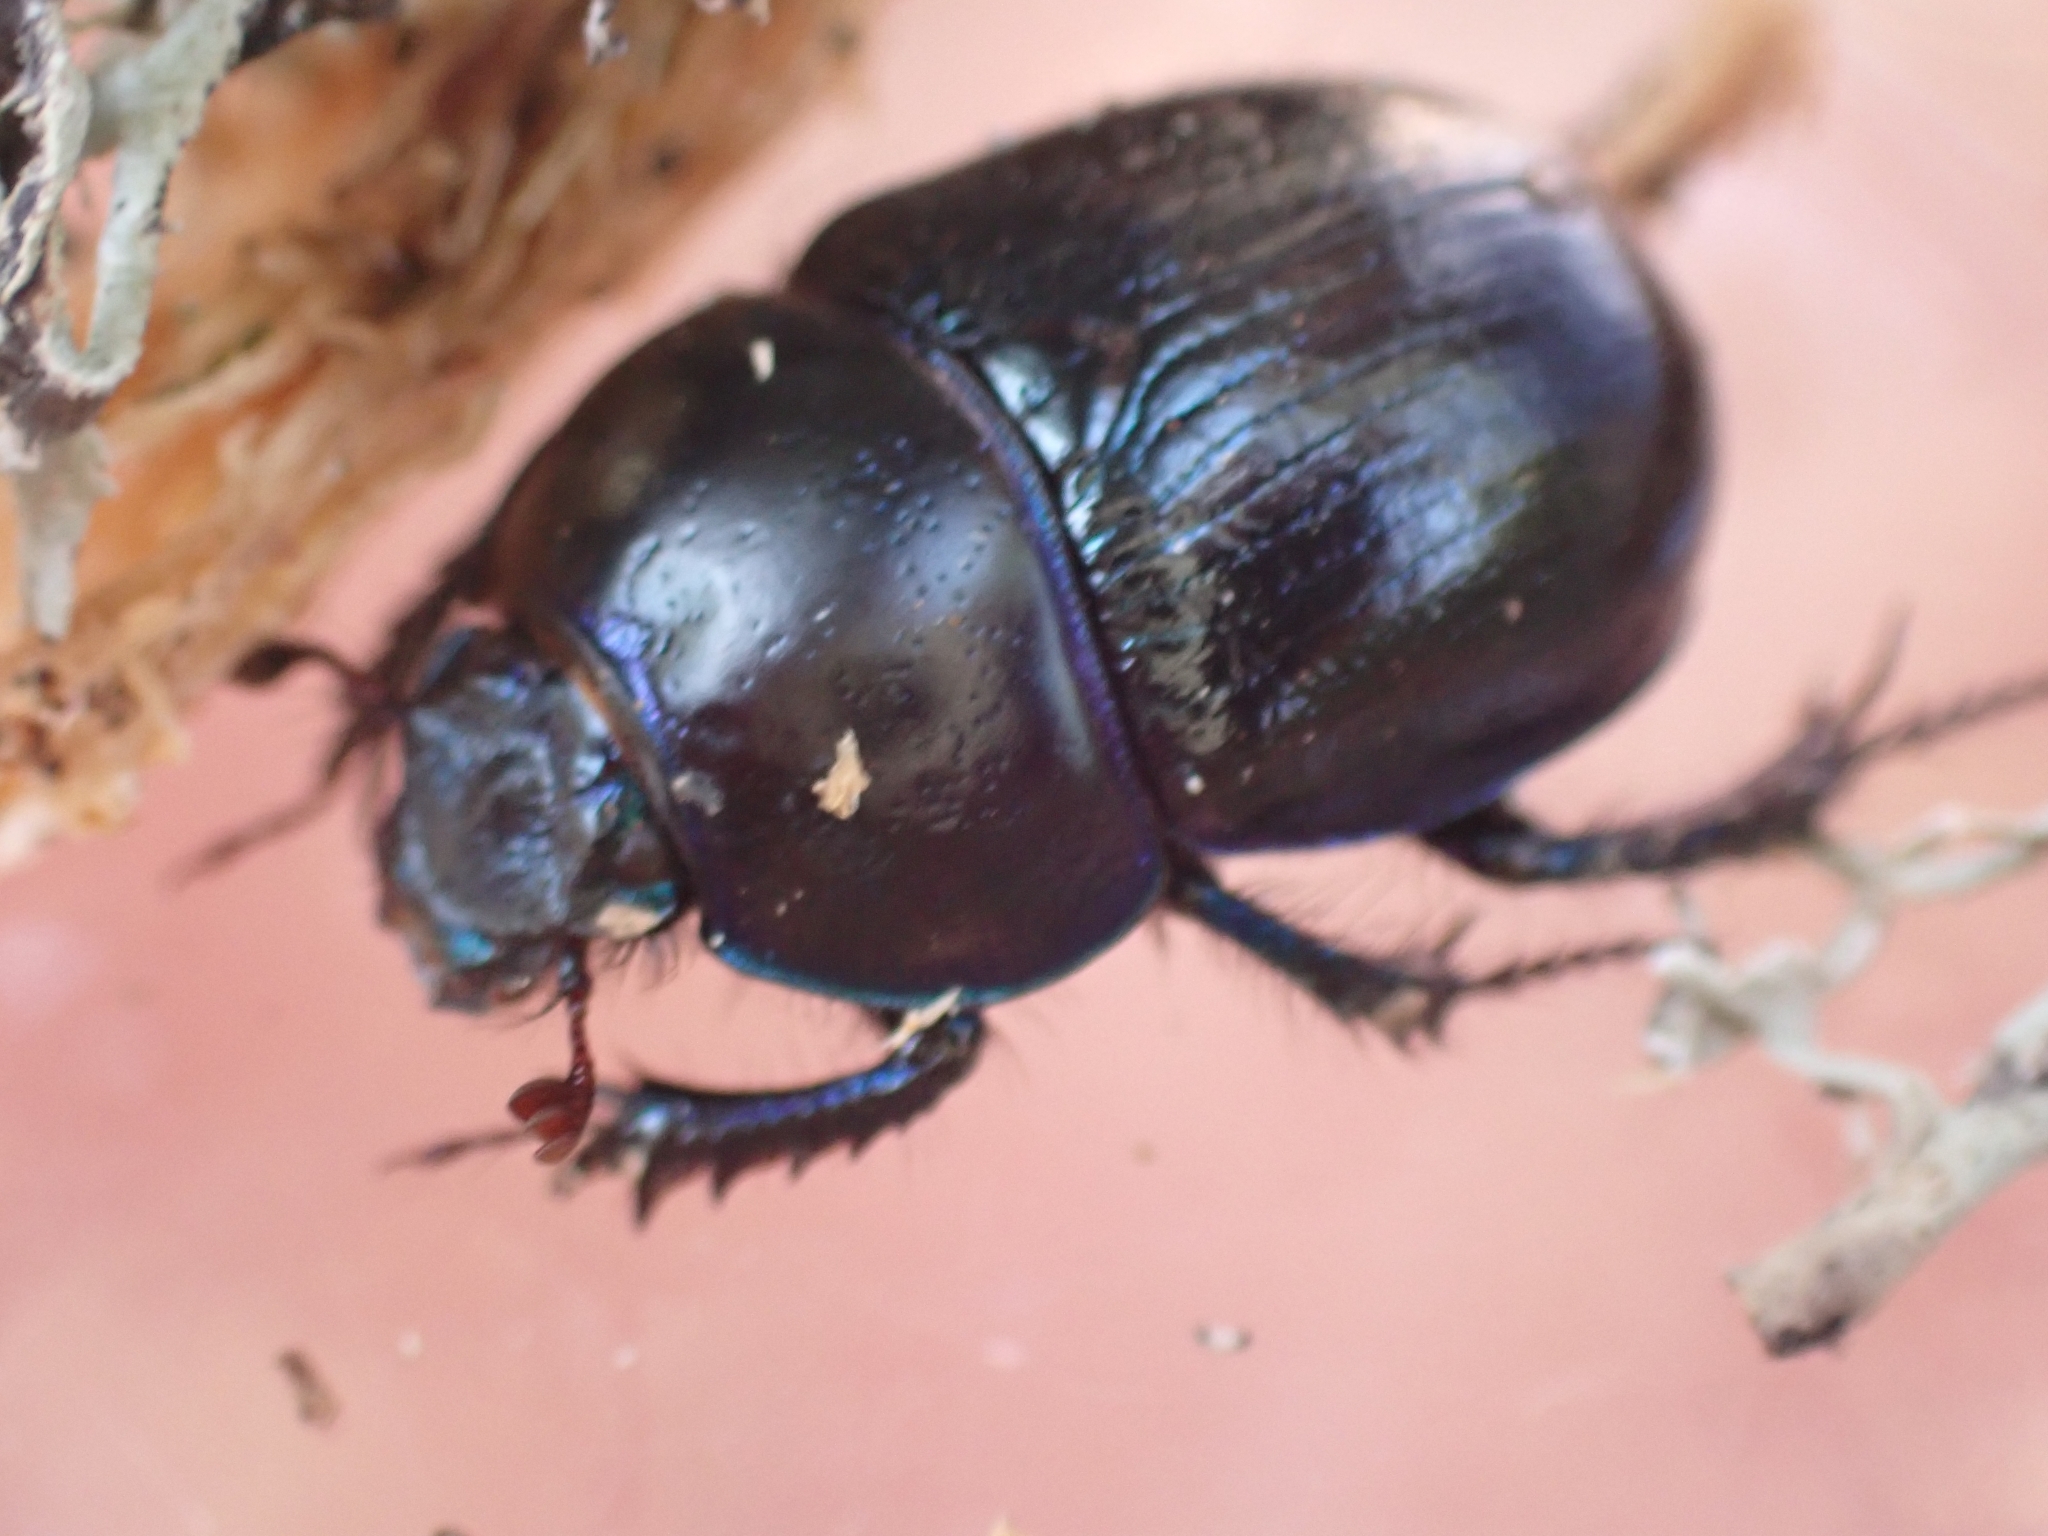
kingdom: Animalia
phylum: Arthropoda
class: Insecta
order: Coleoptera
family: Geotrupidae
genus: Anoplotrupes
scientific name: Anoplotrupes stercorosus
